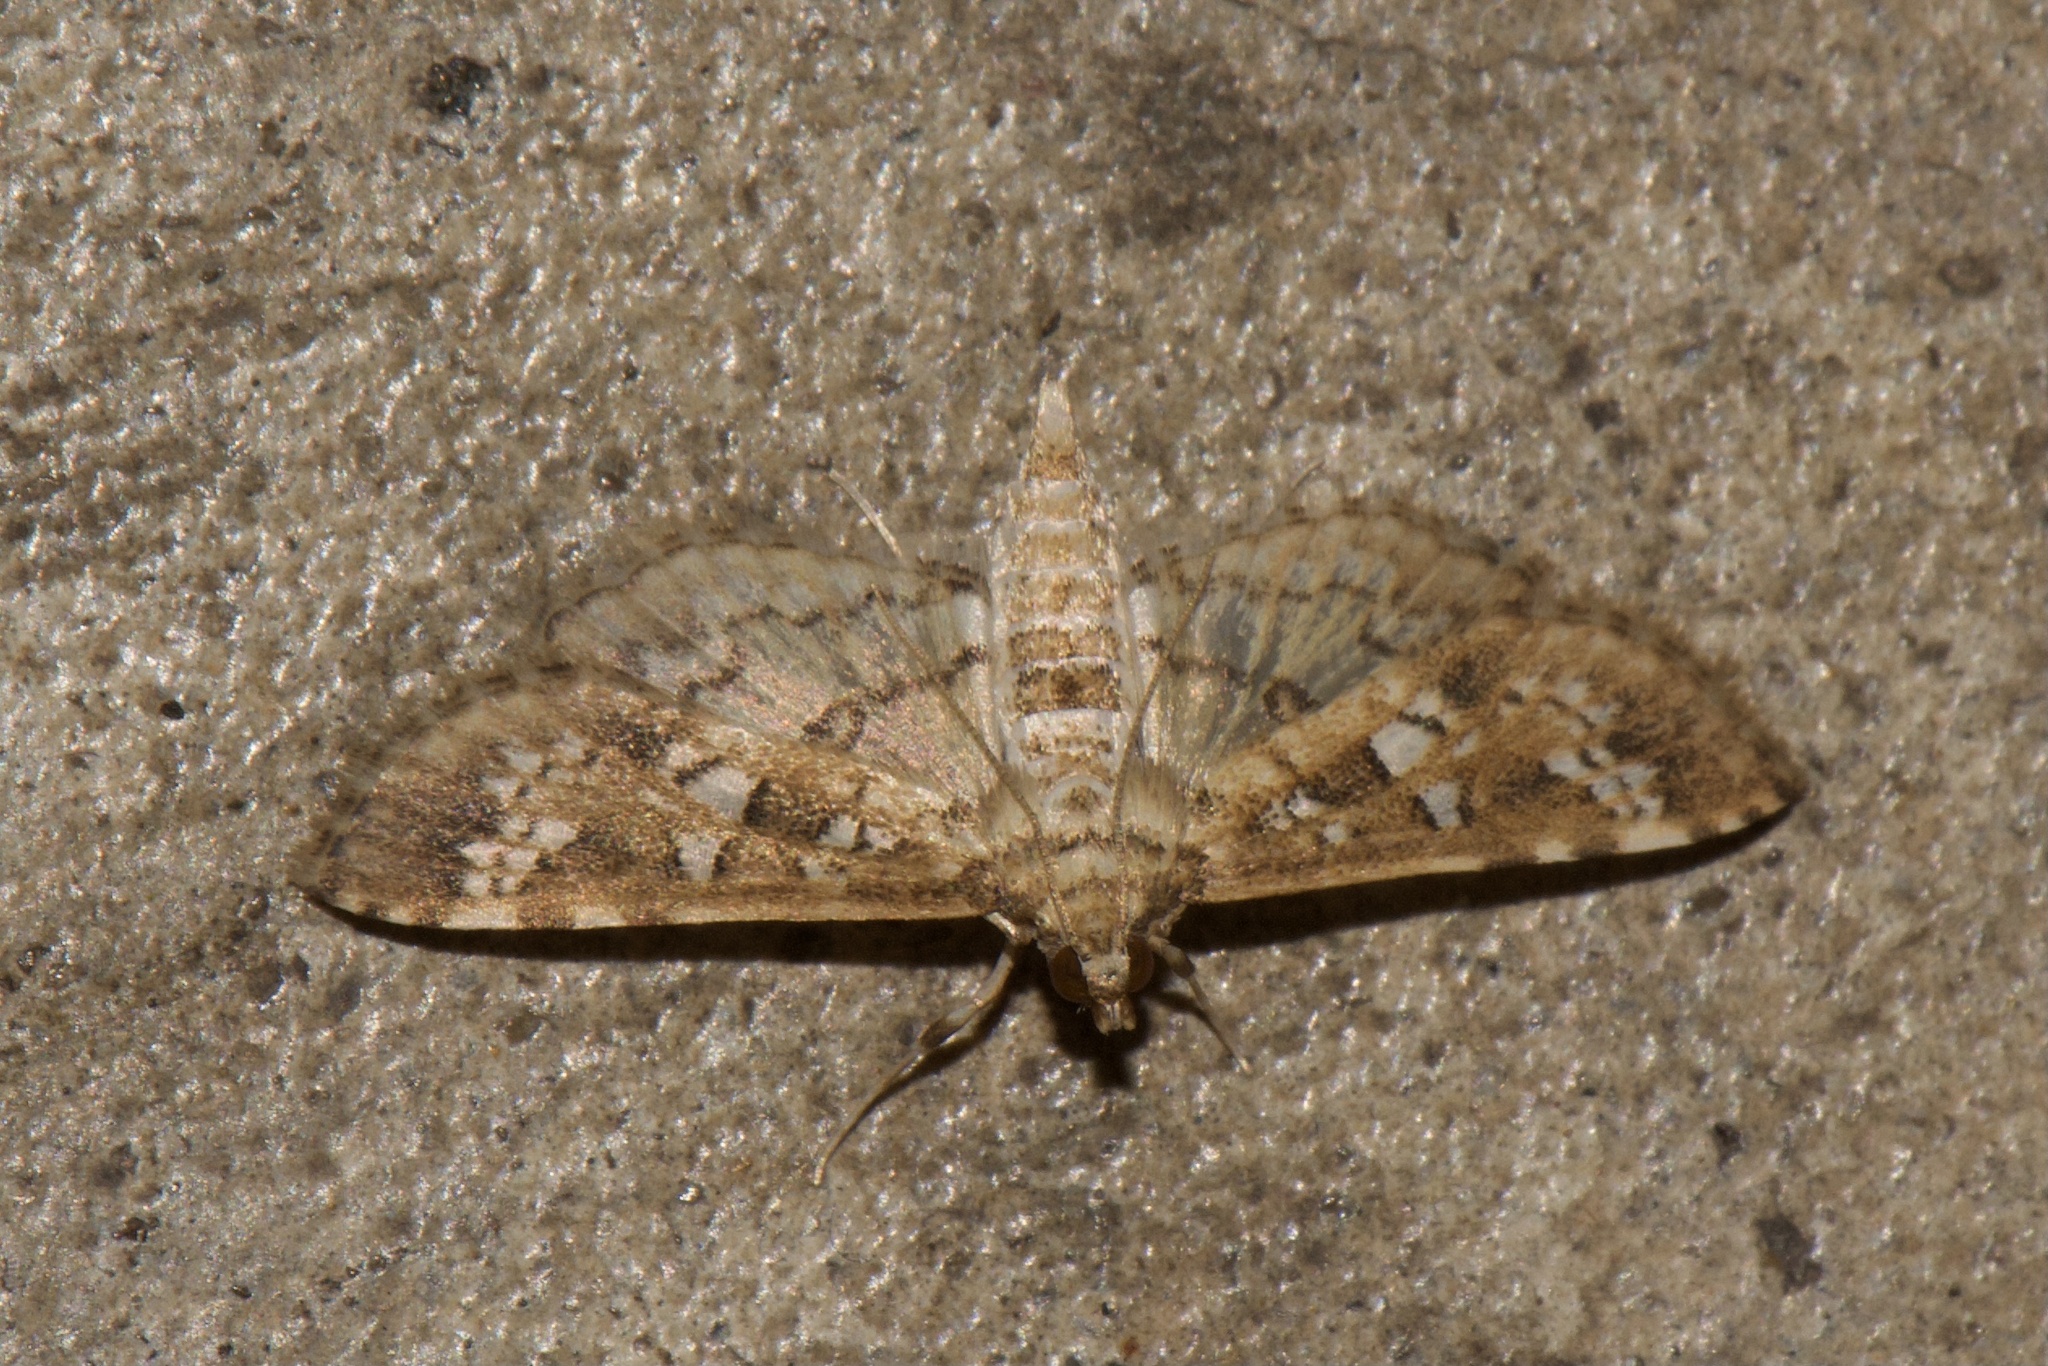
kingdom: Animalia
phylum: Arthropoda
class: Insecta
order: Lepidoptera
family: Crambidae
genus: Samea
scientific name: Samea multiplicalis
